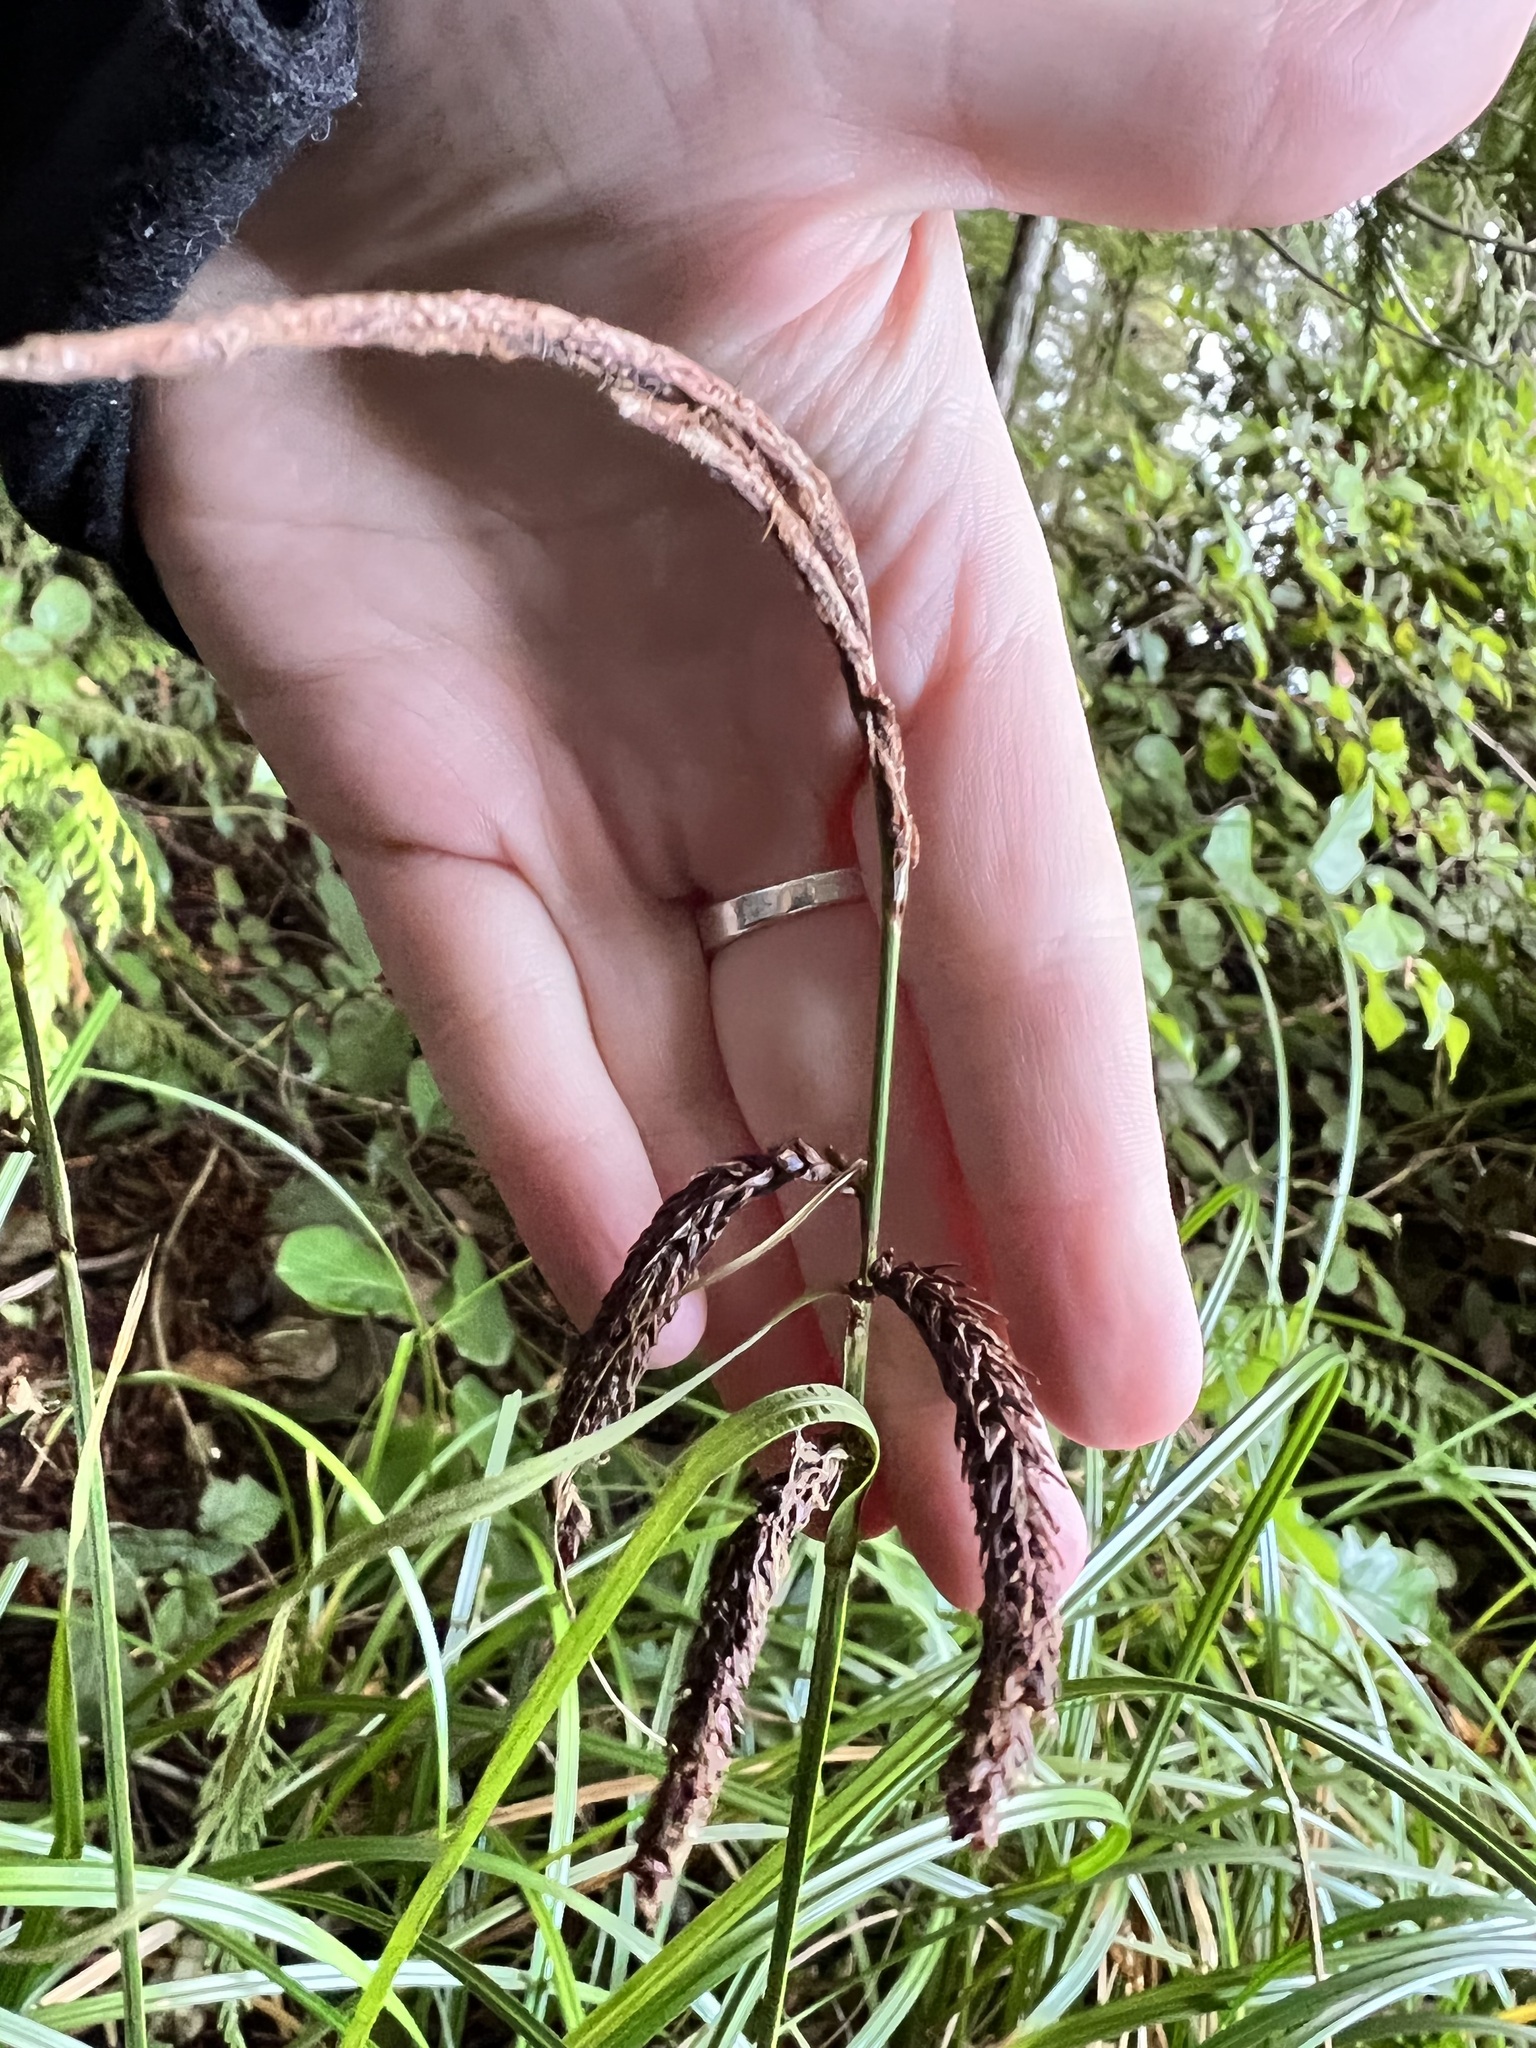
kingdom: Plantae
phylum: Tracheophyta
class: Liliopsida
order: Poales
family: Cyperaceae
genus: Carex
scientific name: Carex obnupta
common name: Slough sedge
